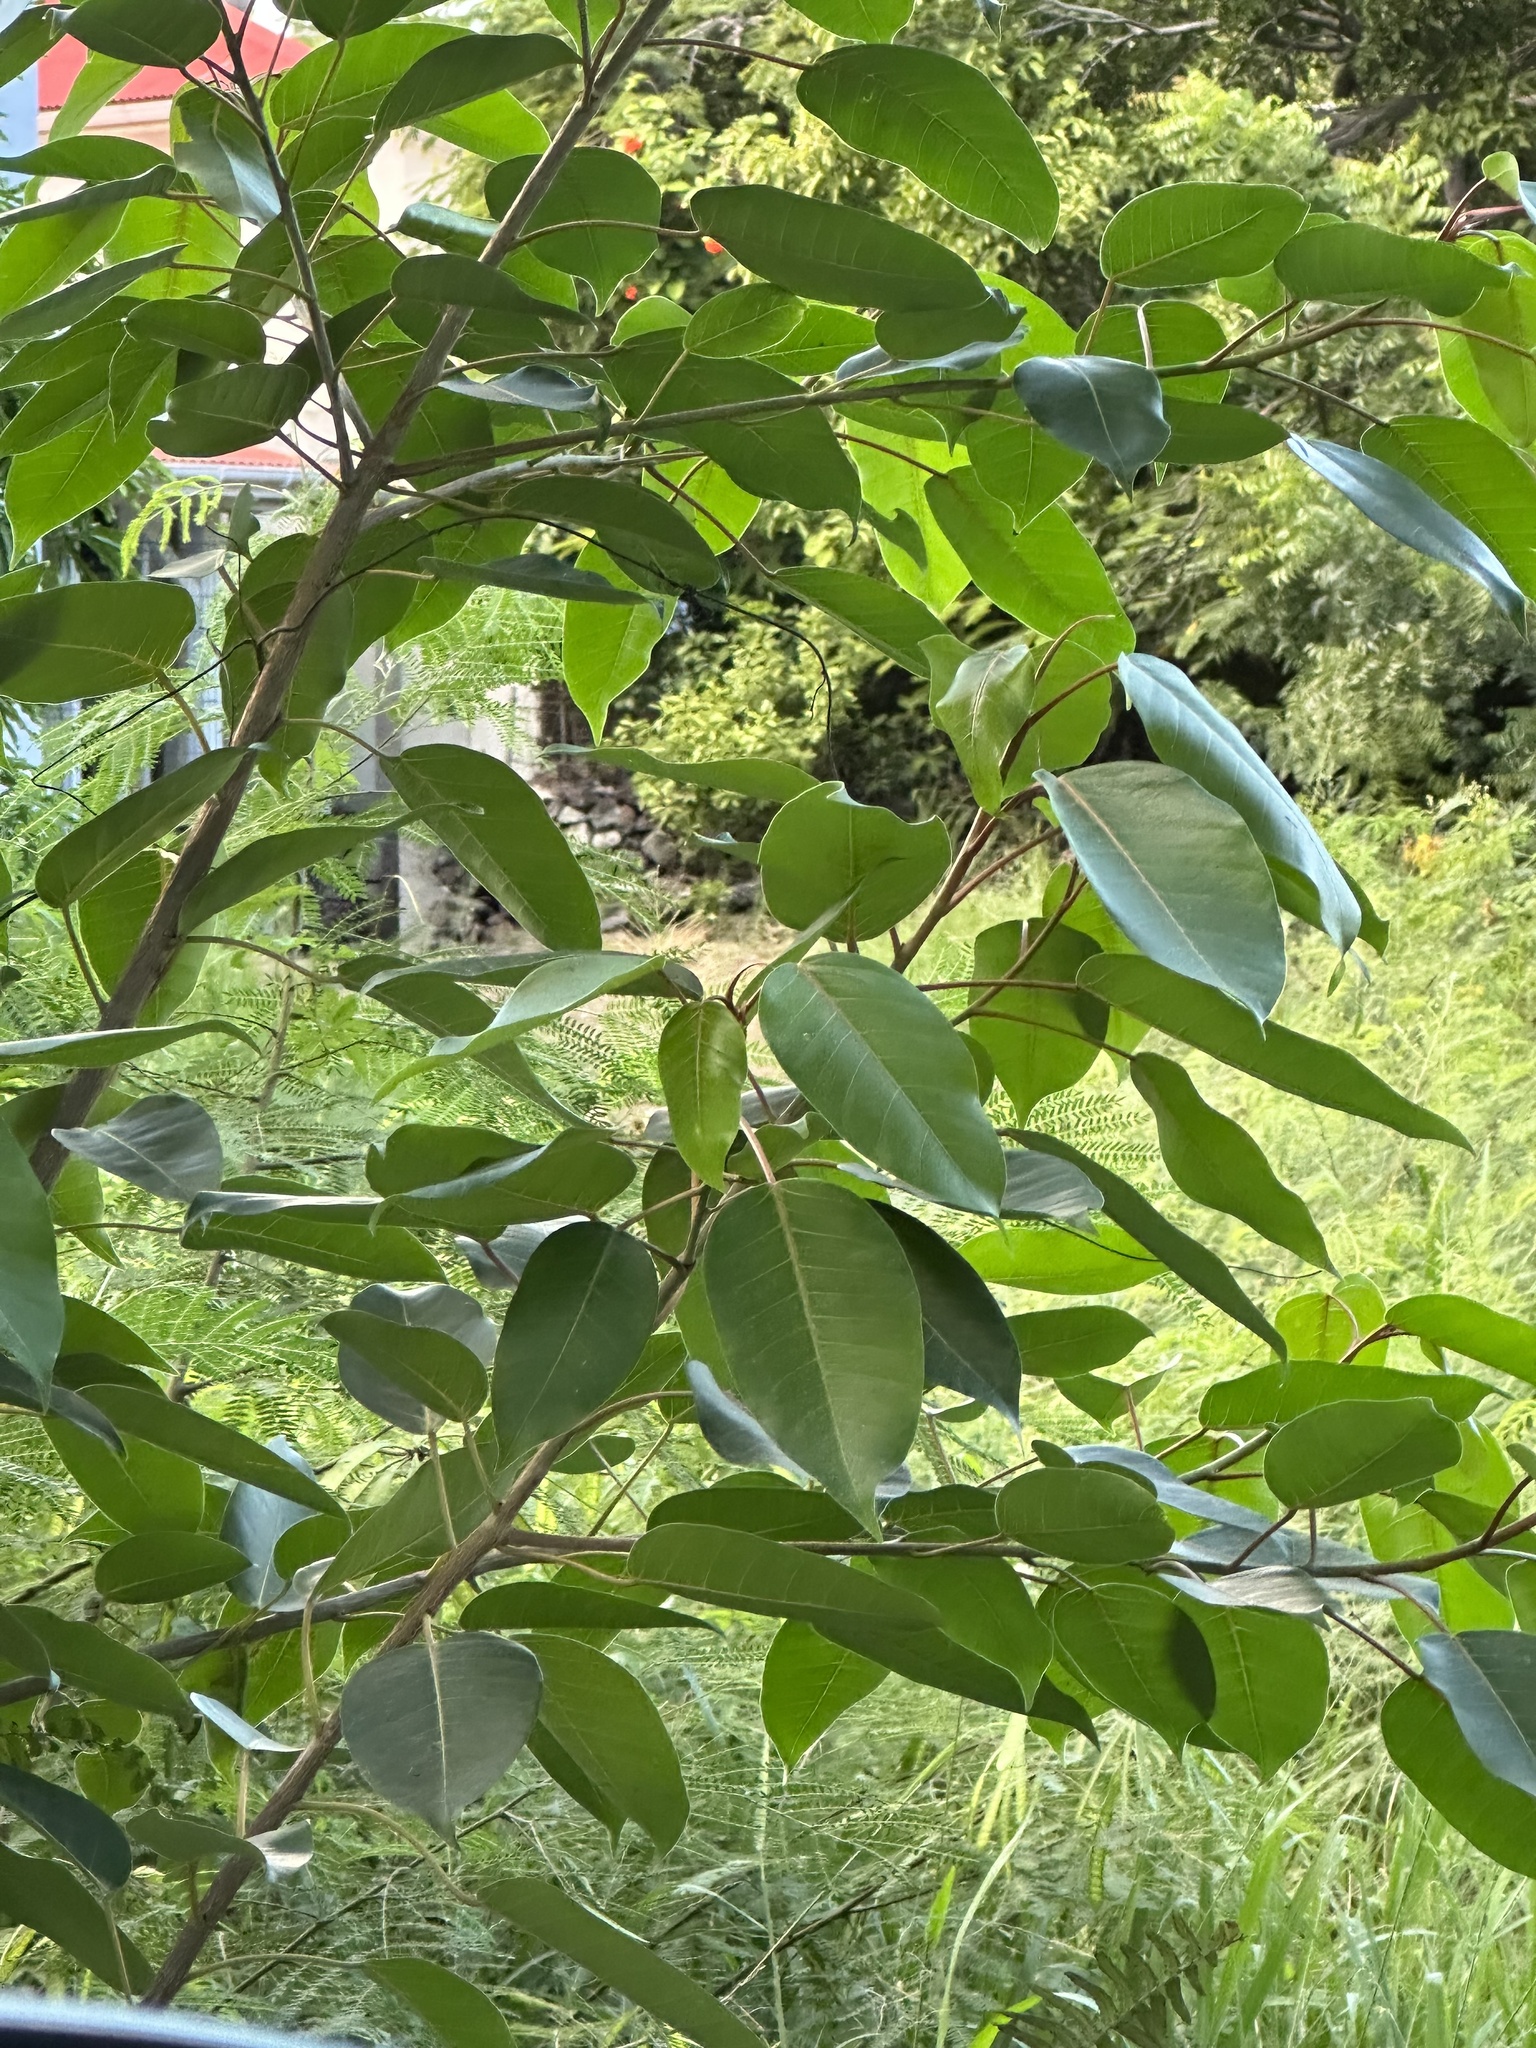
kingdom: Plantae
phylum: Tracheophyta
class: Magnoliopsida
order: Rosales
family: Moraceae
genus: Ficus
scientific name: Ficus citrifolia
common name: Strangler fig
